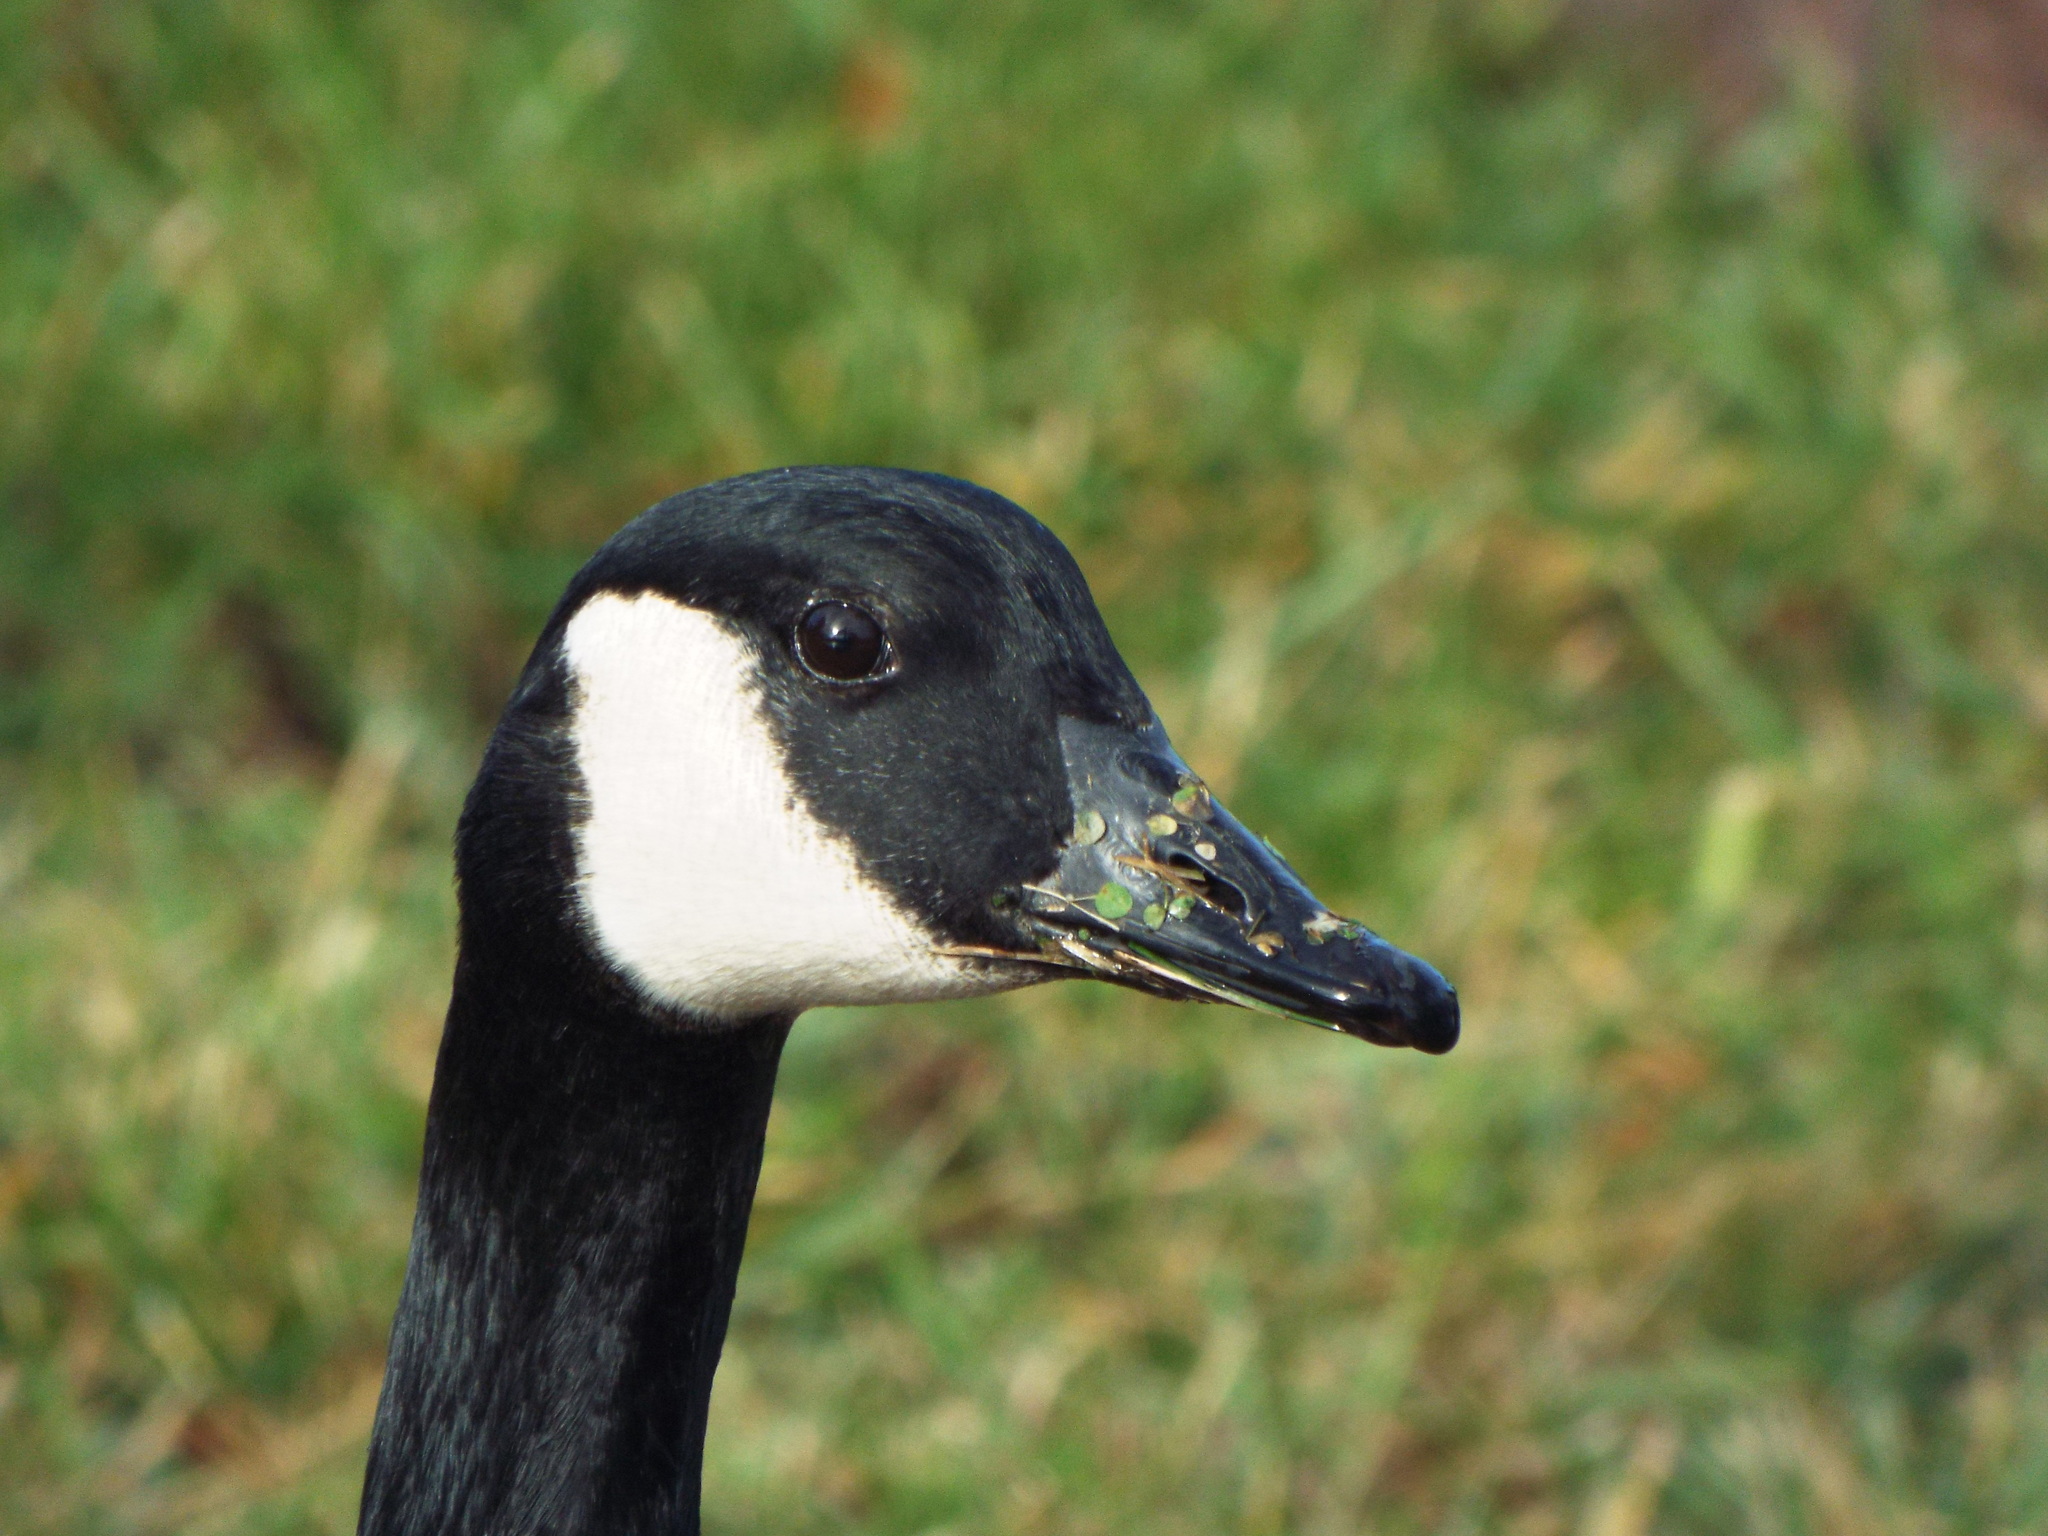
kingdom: Animalia
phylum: Chordata
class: Aves
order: Anseriformes
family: Anatidae
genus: Branta
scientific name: Branta canadensis
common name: Canada goose
